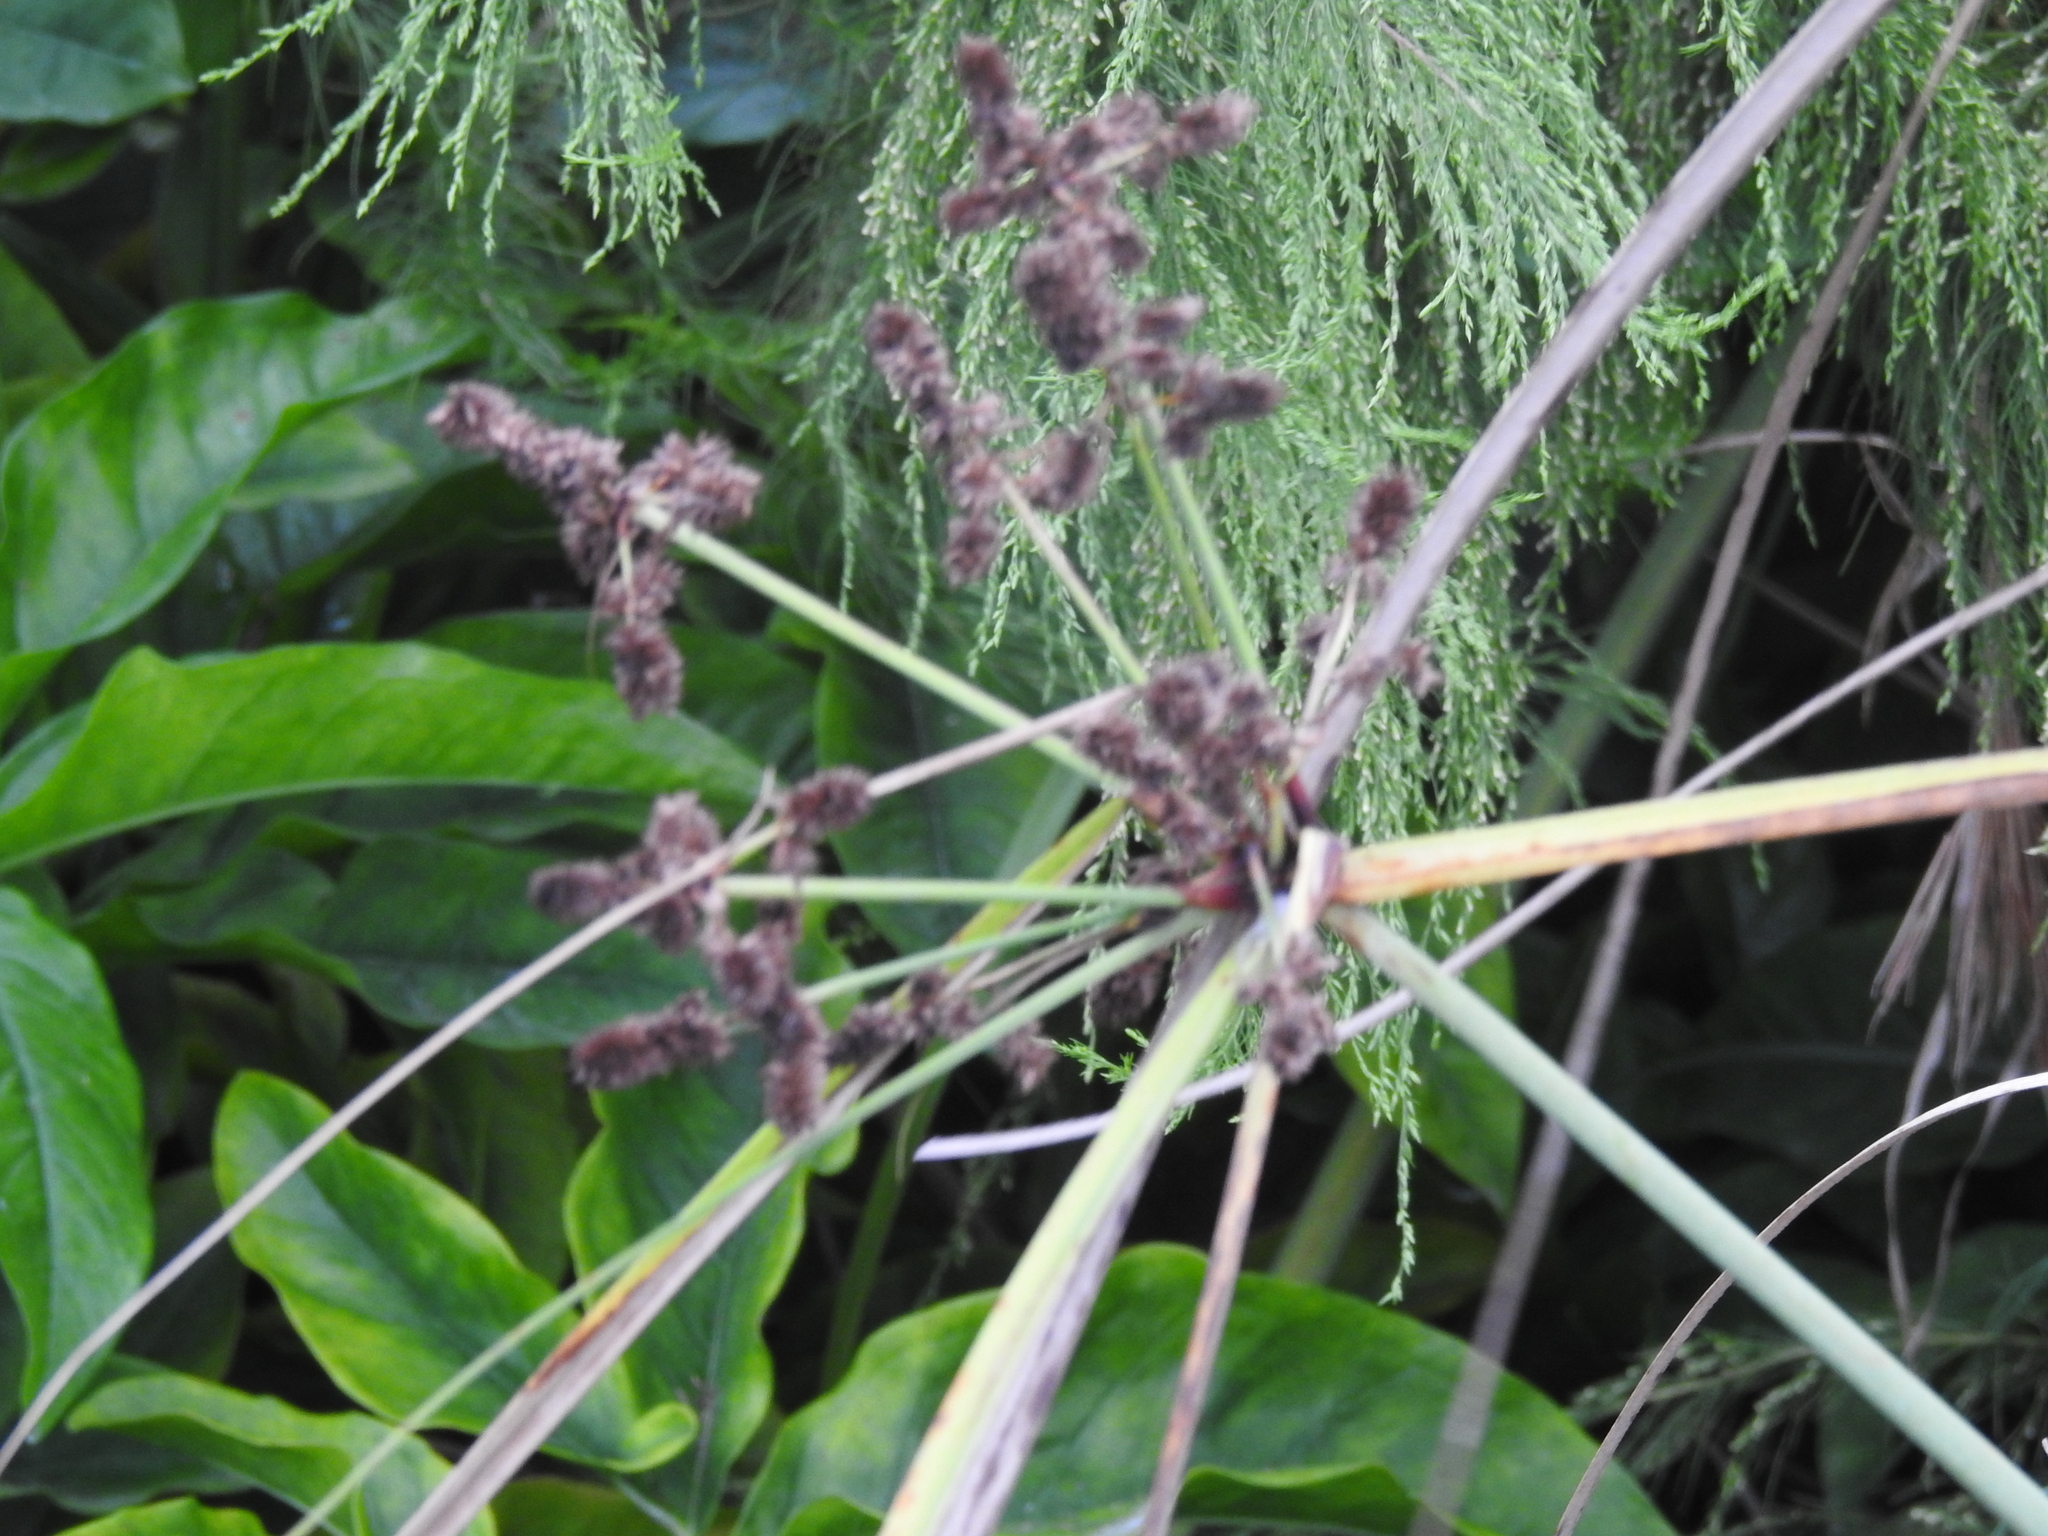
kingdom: Plantae
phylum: Tracheophyta
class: Liliopsida
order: Poales
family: Cyperaceae
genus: Cyperus
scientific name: Cyperus ligularis
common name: Swamp flat sedge
